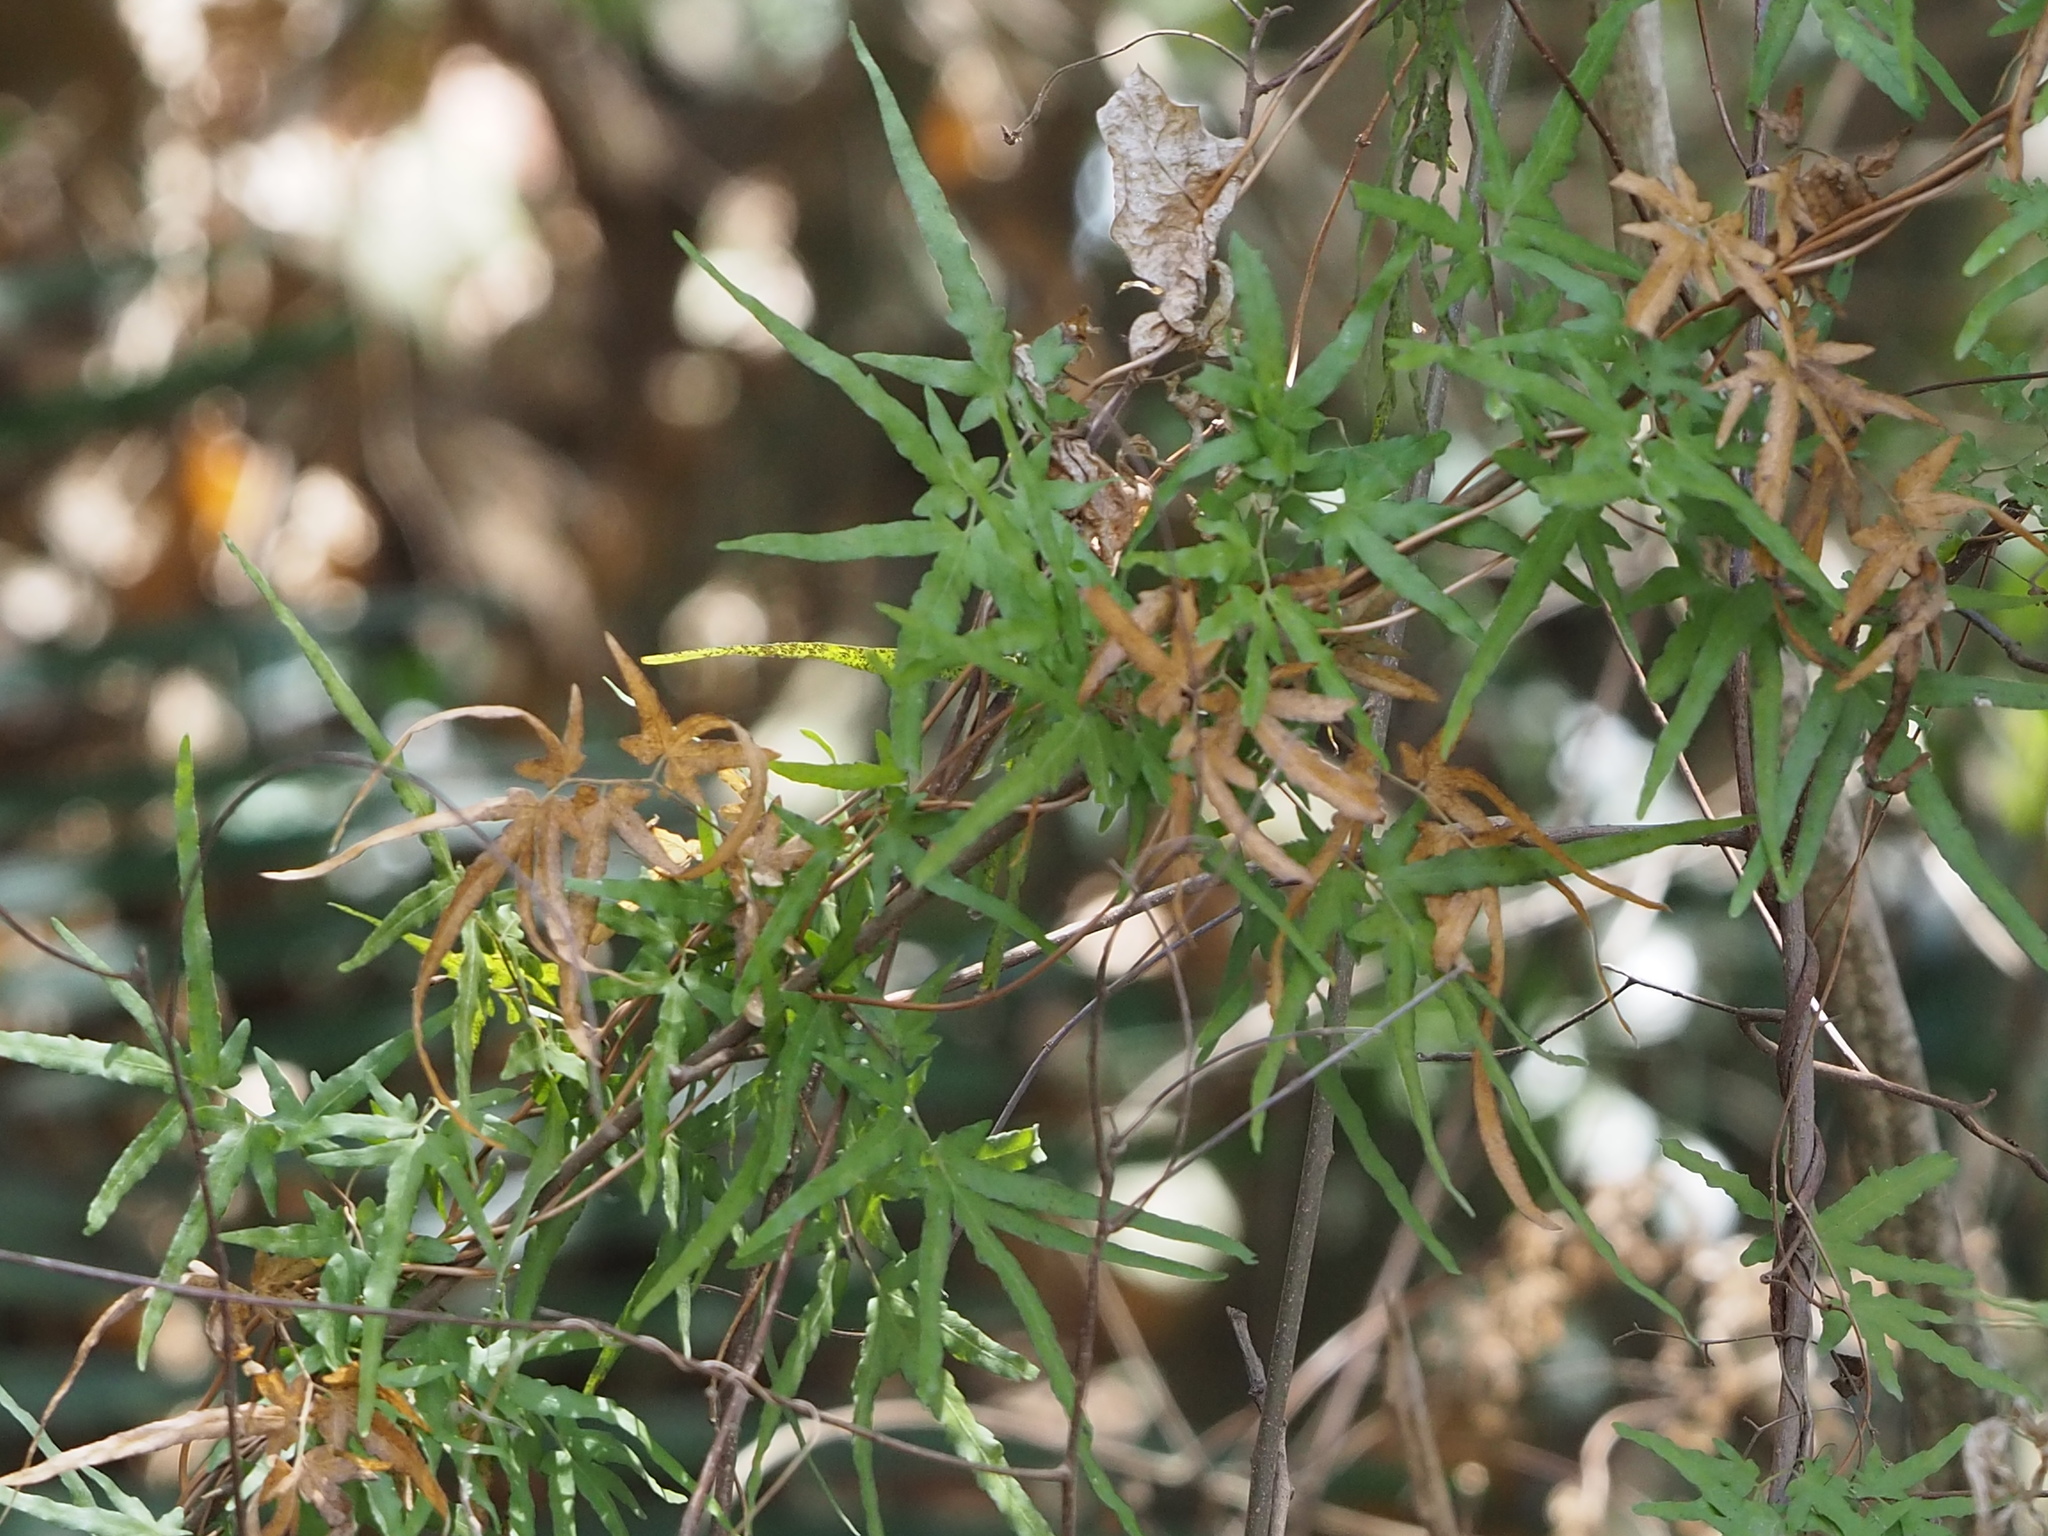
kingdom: Plantae
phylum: Tracheophyta
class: Polypodiopsida
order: Schizaeales
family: Lygodiaceae
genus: Lygodium
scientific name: Lygodium japonicum
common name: Japanese climbing fern
